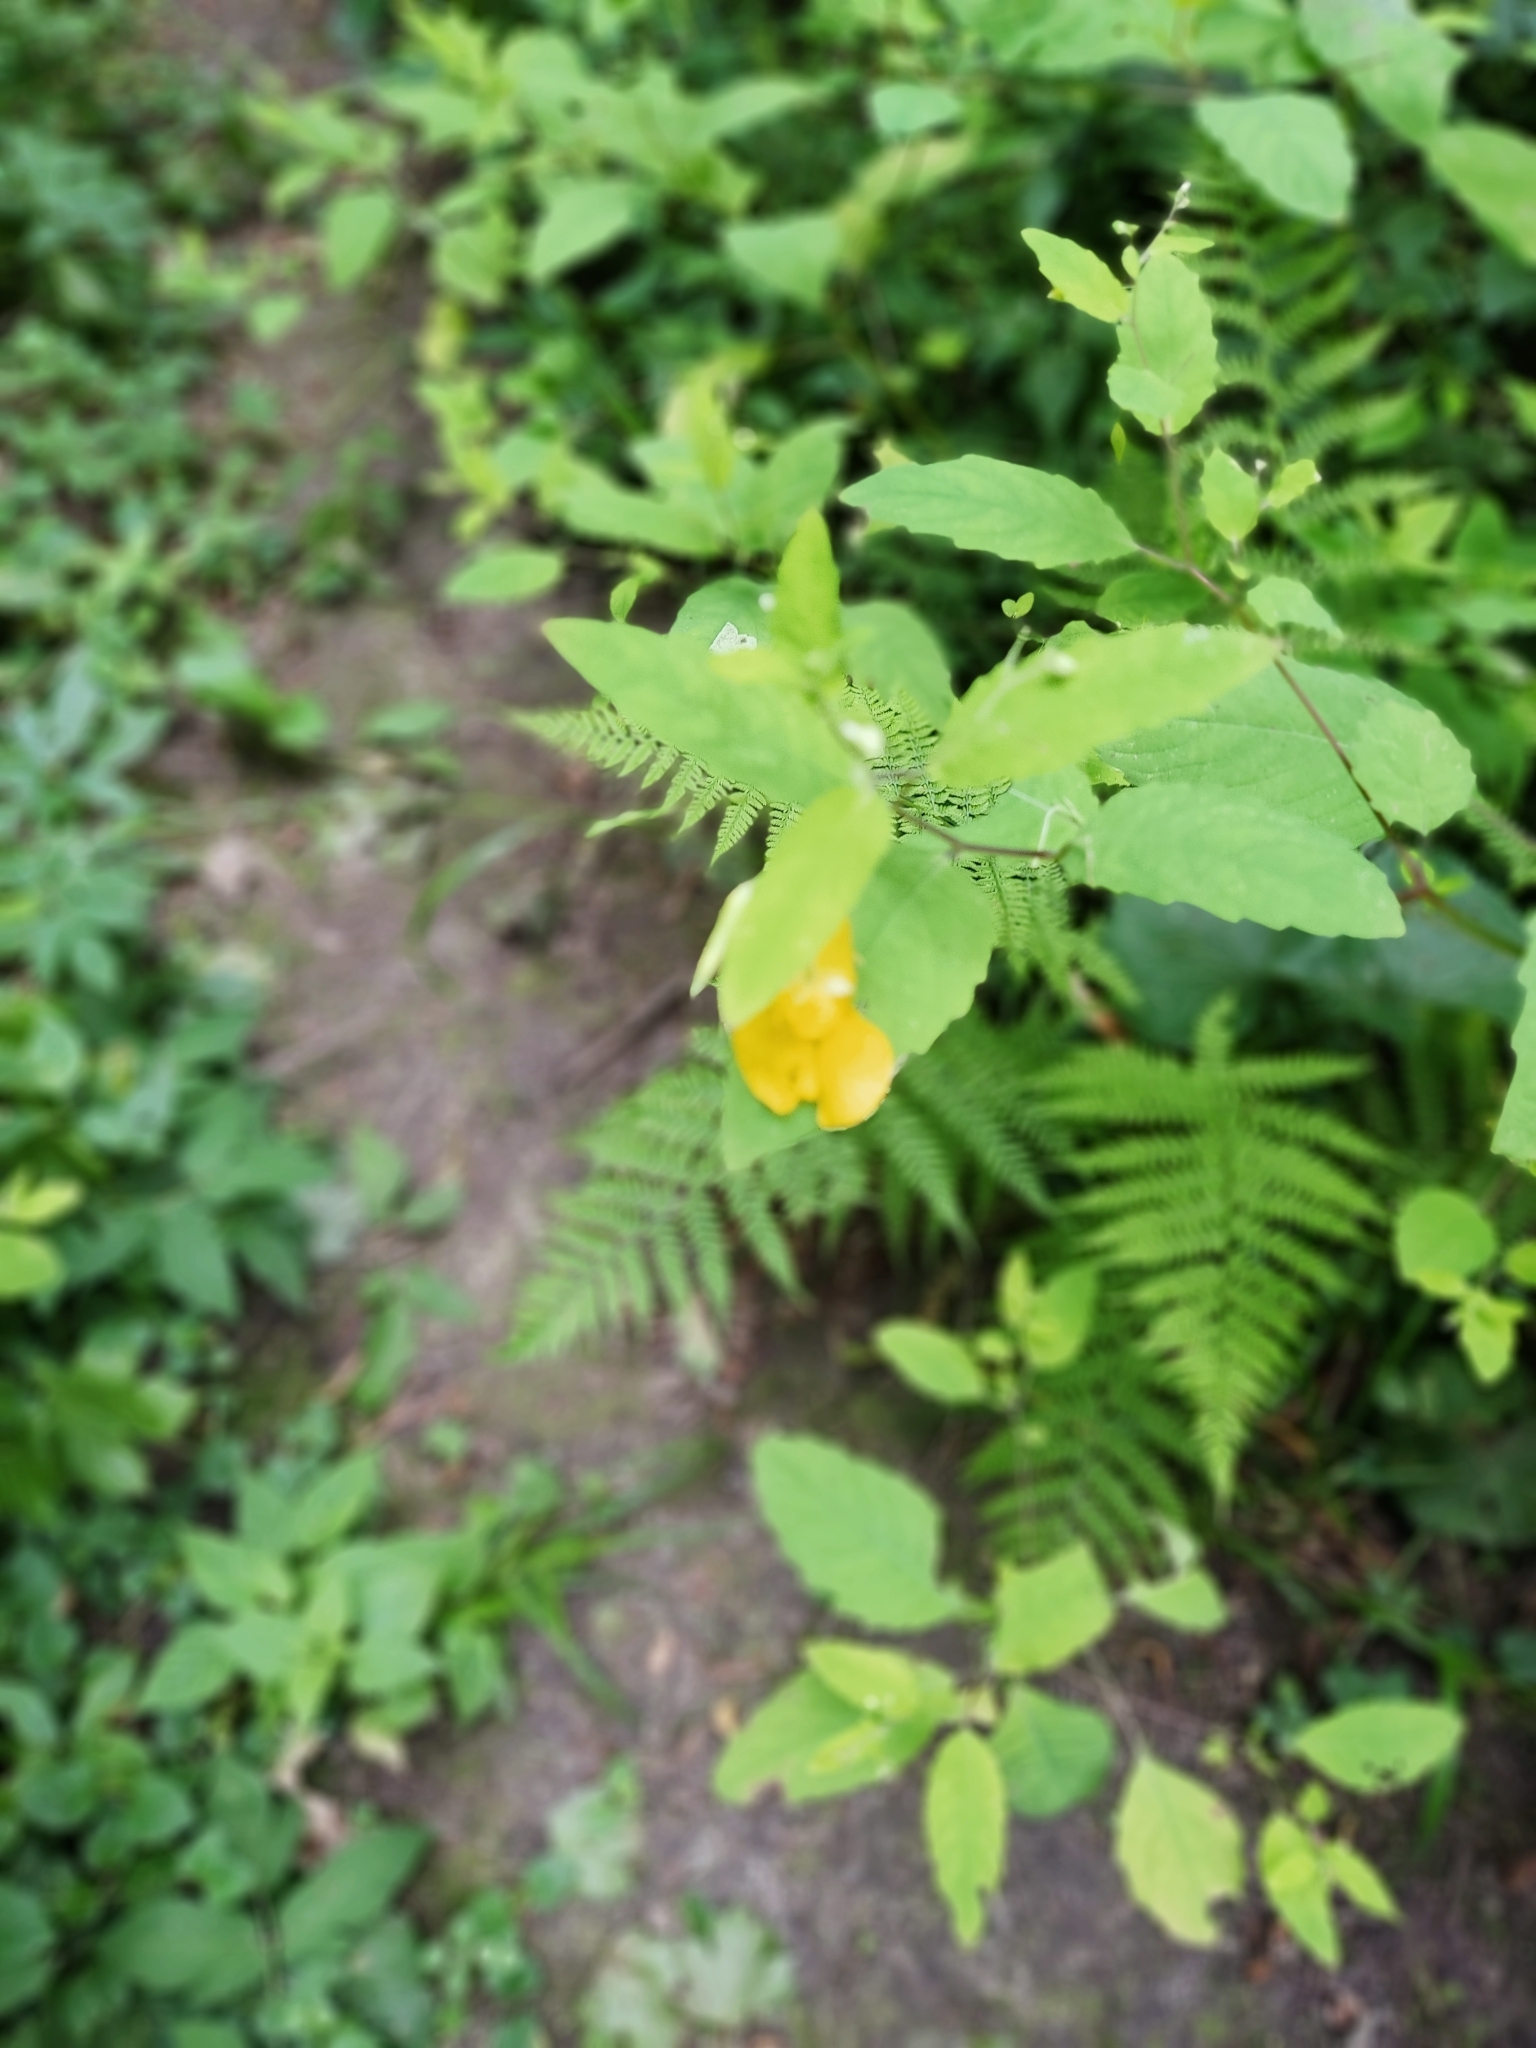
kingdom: Plantae
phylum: Tracheophyta
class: Magnoliopsida
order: Ericales
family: Balsaminaceae
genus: Impatiens
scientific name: Impatiens noli-tangere
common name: Touch-me-not balsam
